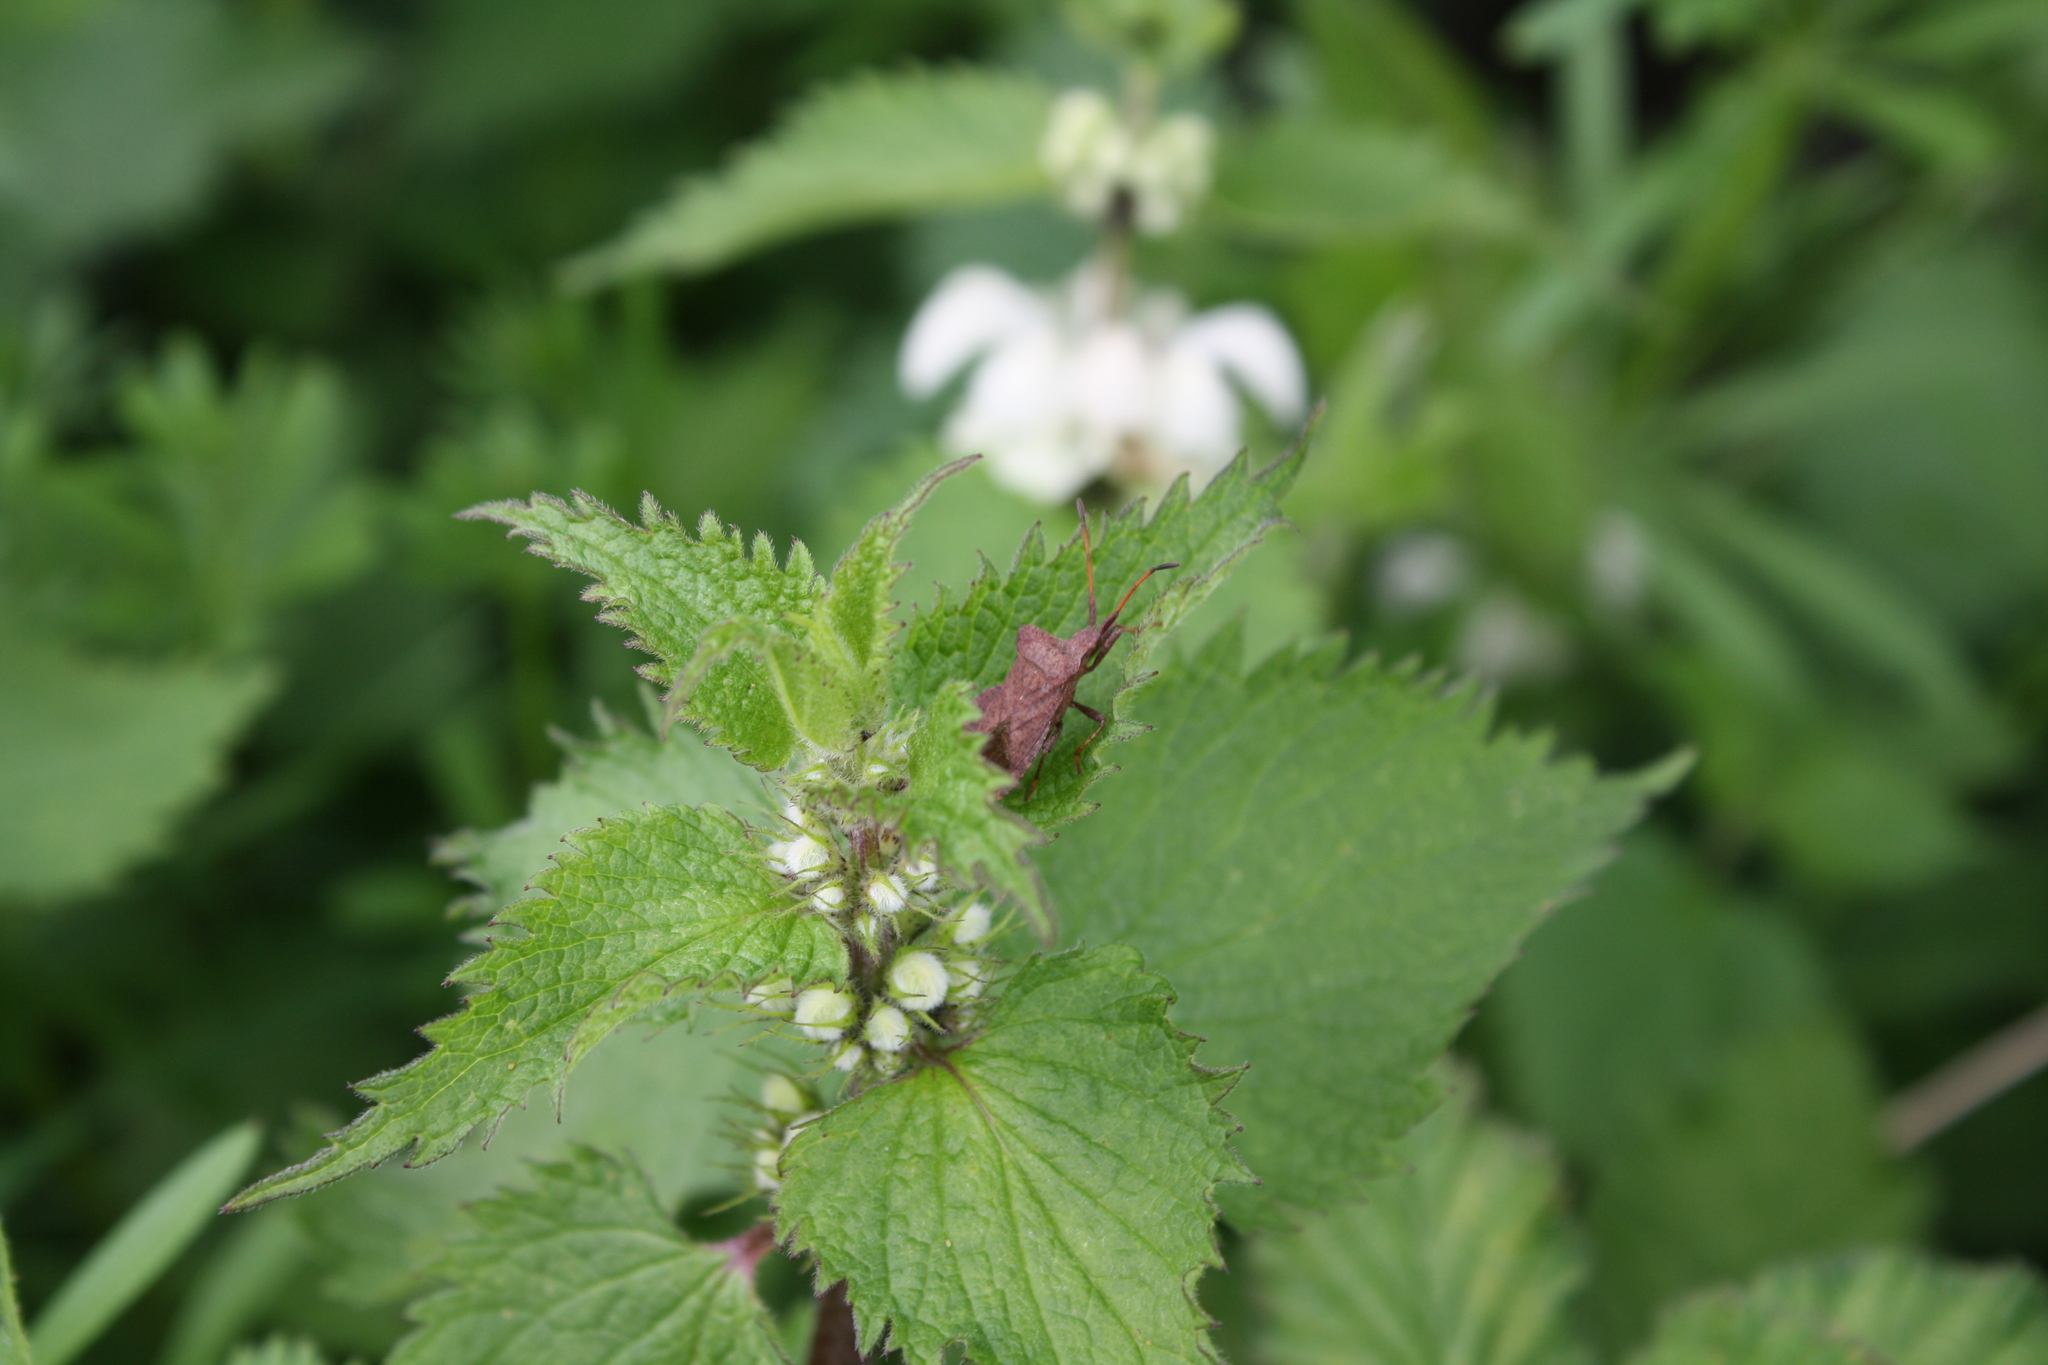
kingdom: Animalia
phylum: Arthropoda
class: Insecta
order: Hemiptera
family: Coreidae
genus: Coreus
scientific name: Coreus marginatus
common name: Dock bug
